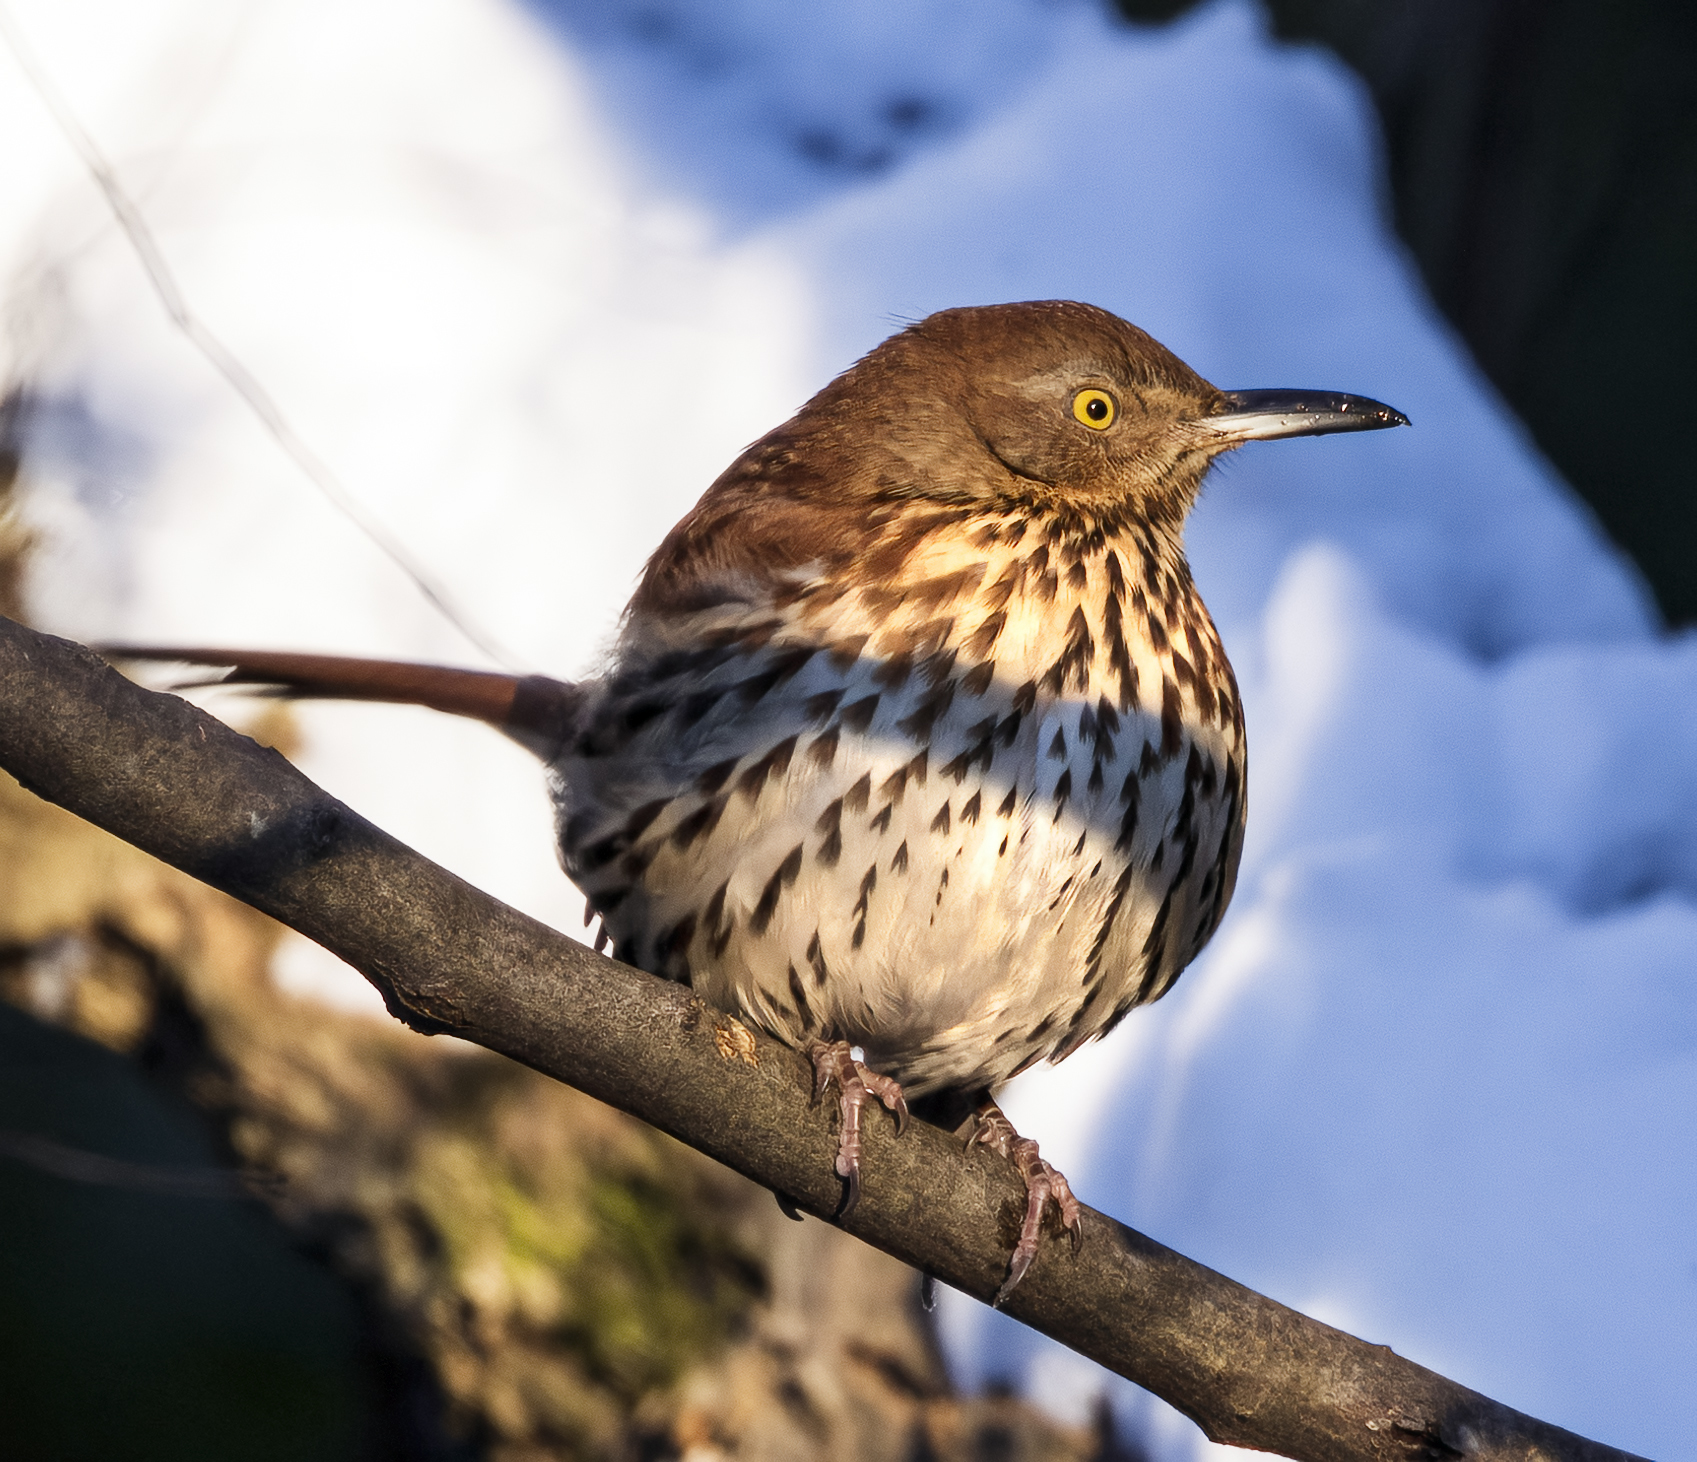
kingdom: Animalia
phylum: Chordata
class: Aves
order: Passeriformes
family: Mimidae
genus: Toxostoma
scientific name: Toxostoma rufum
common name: Brown thrasher
